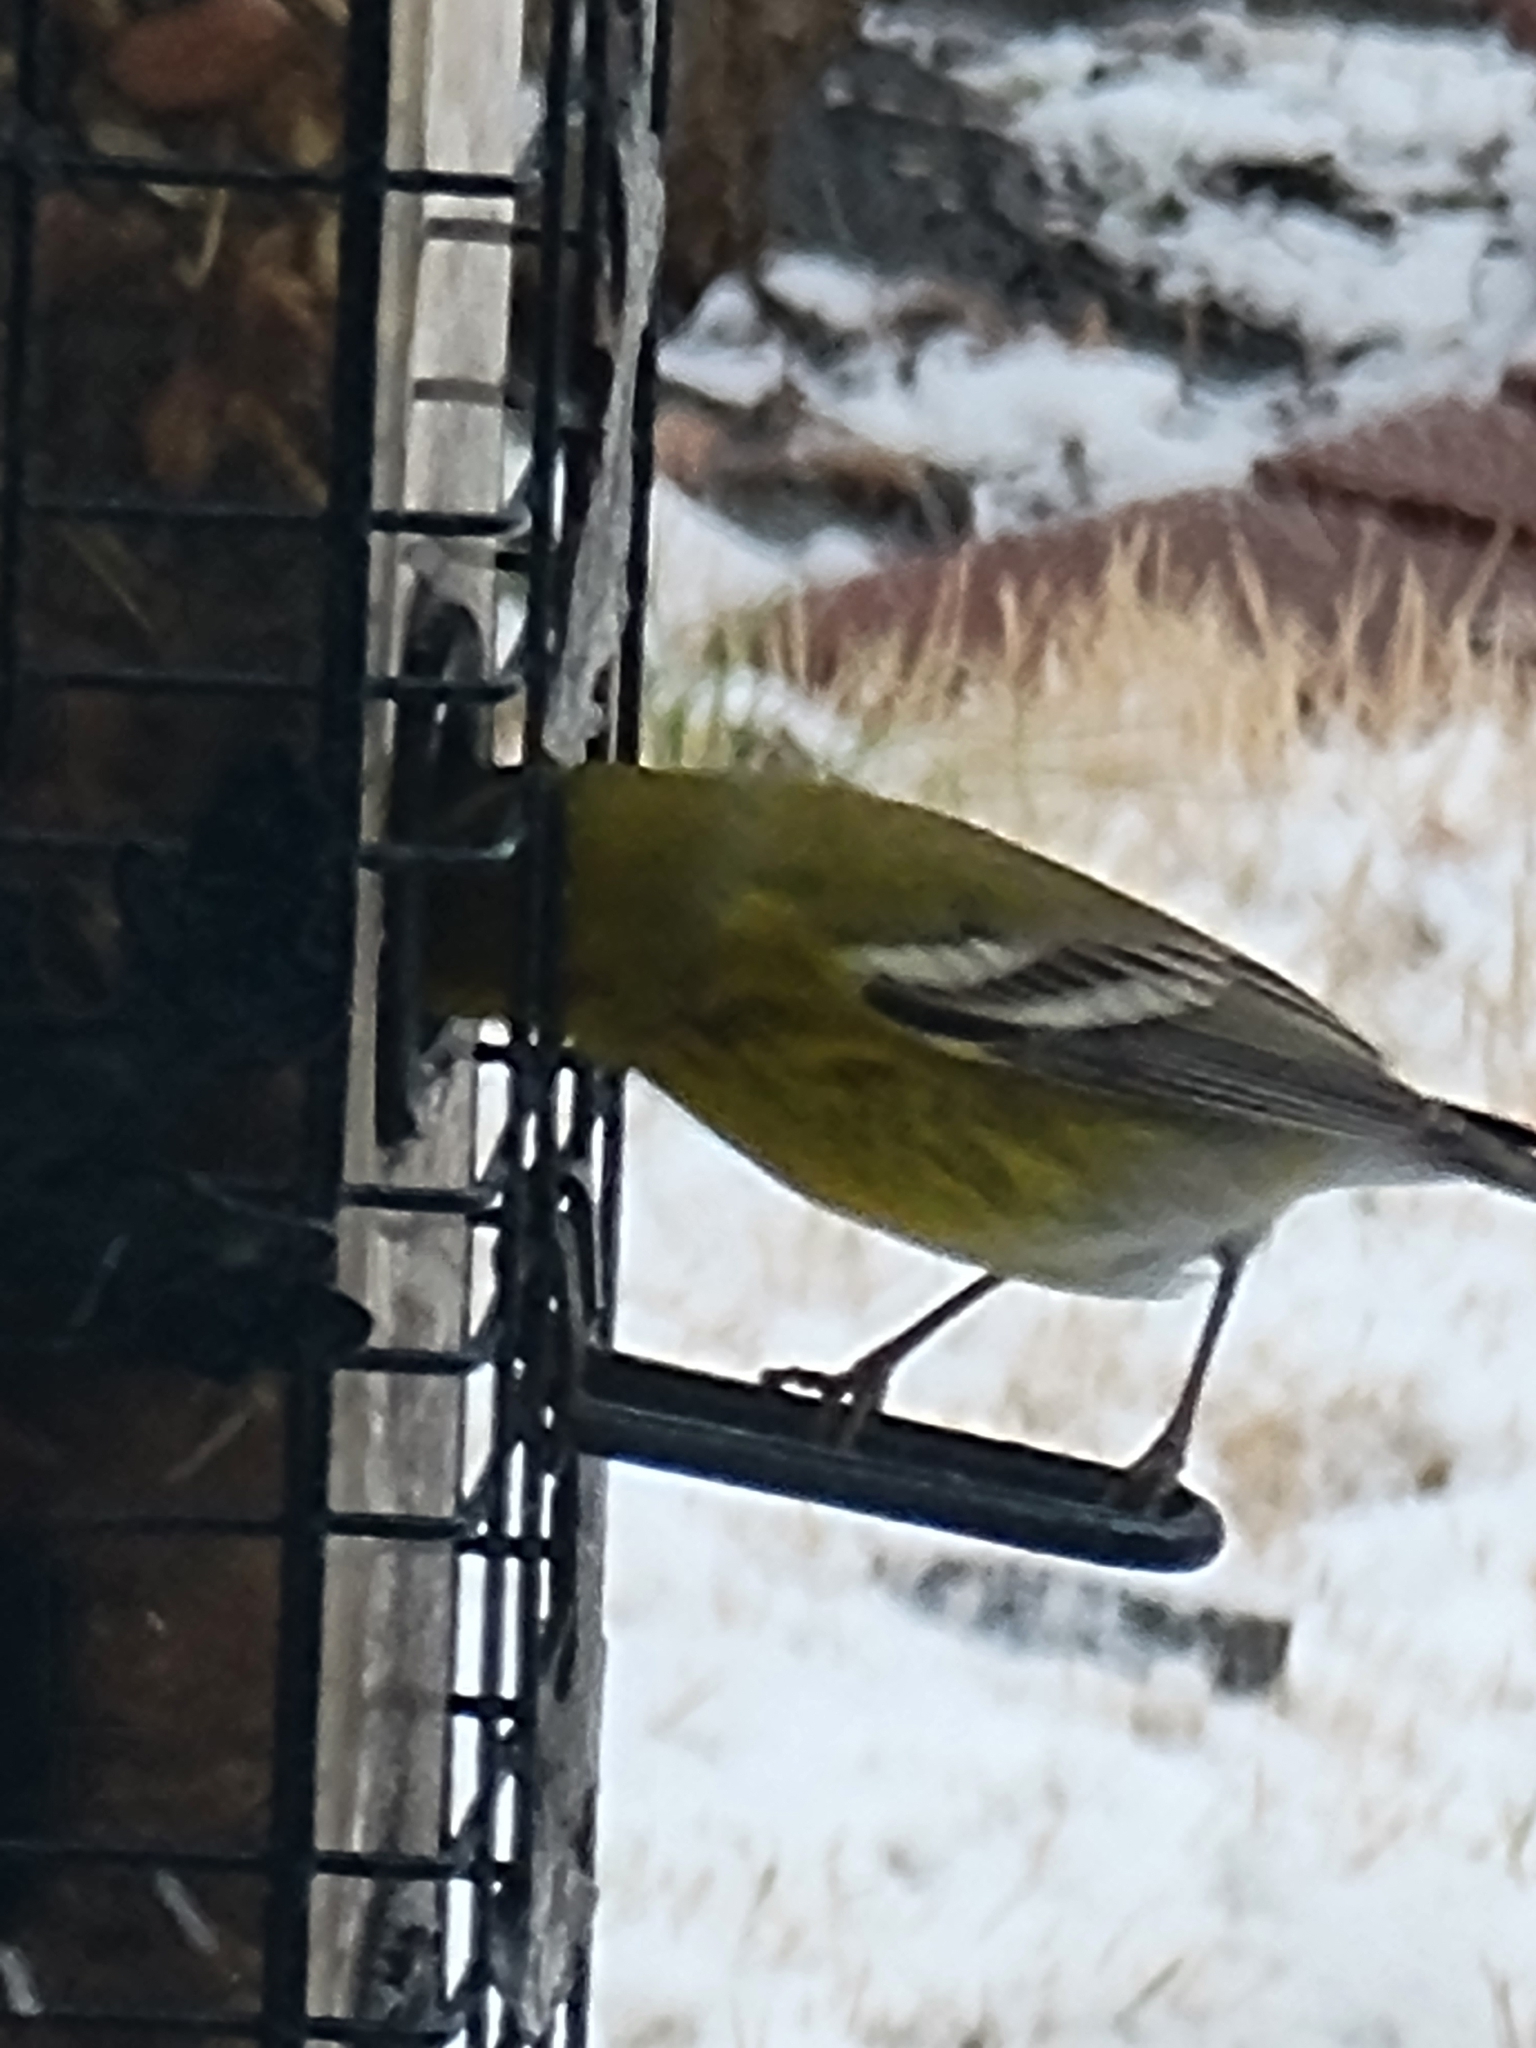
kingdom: Animalia
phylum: Chordata
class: Aves
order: Passeriformes
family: Parulidae
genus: Setophaga
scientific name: Setophaga pinus
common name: Pine warbler
